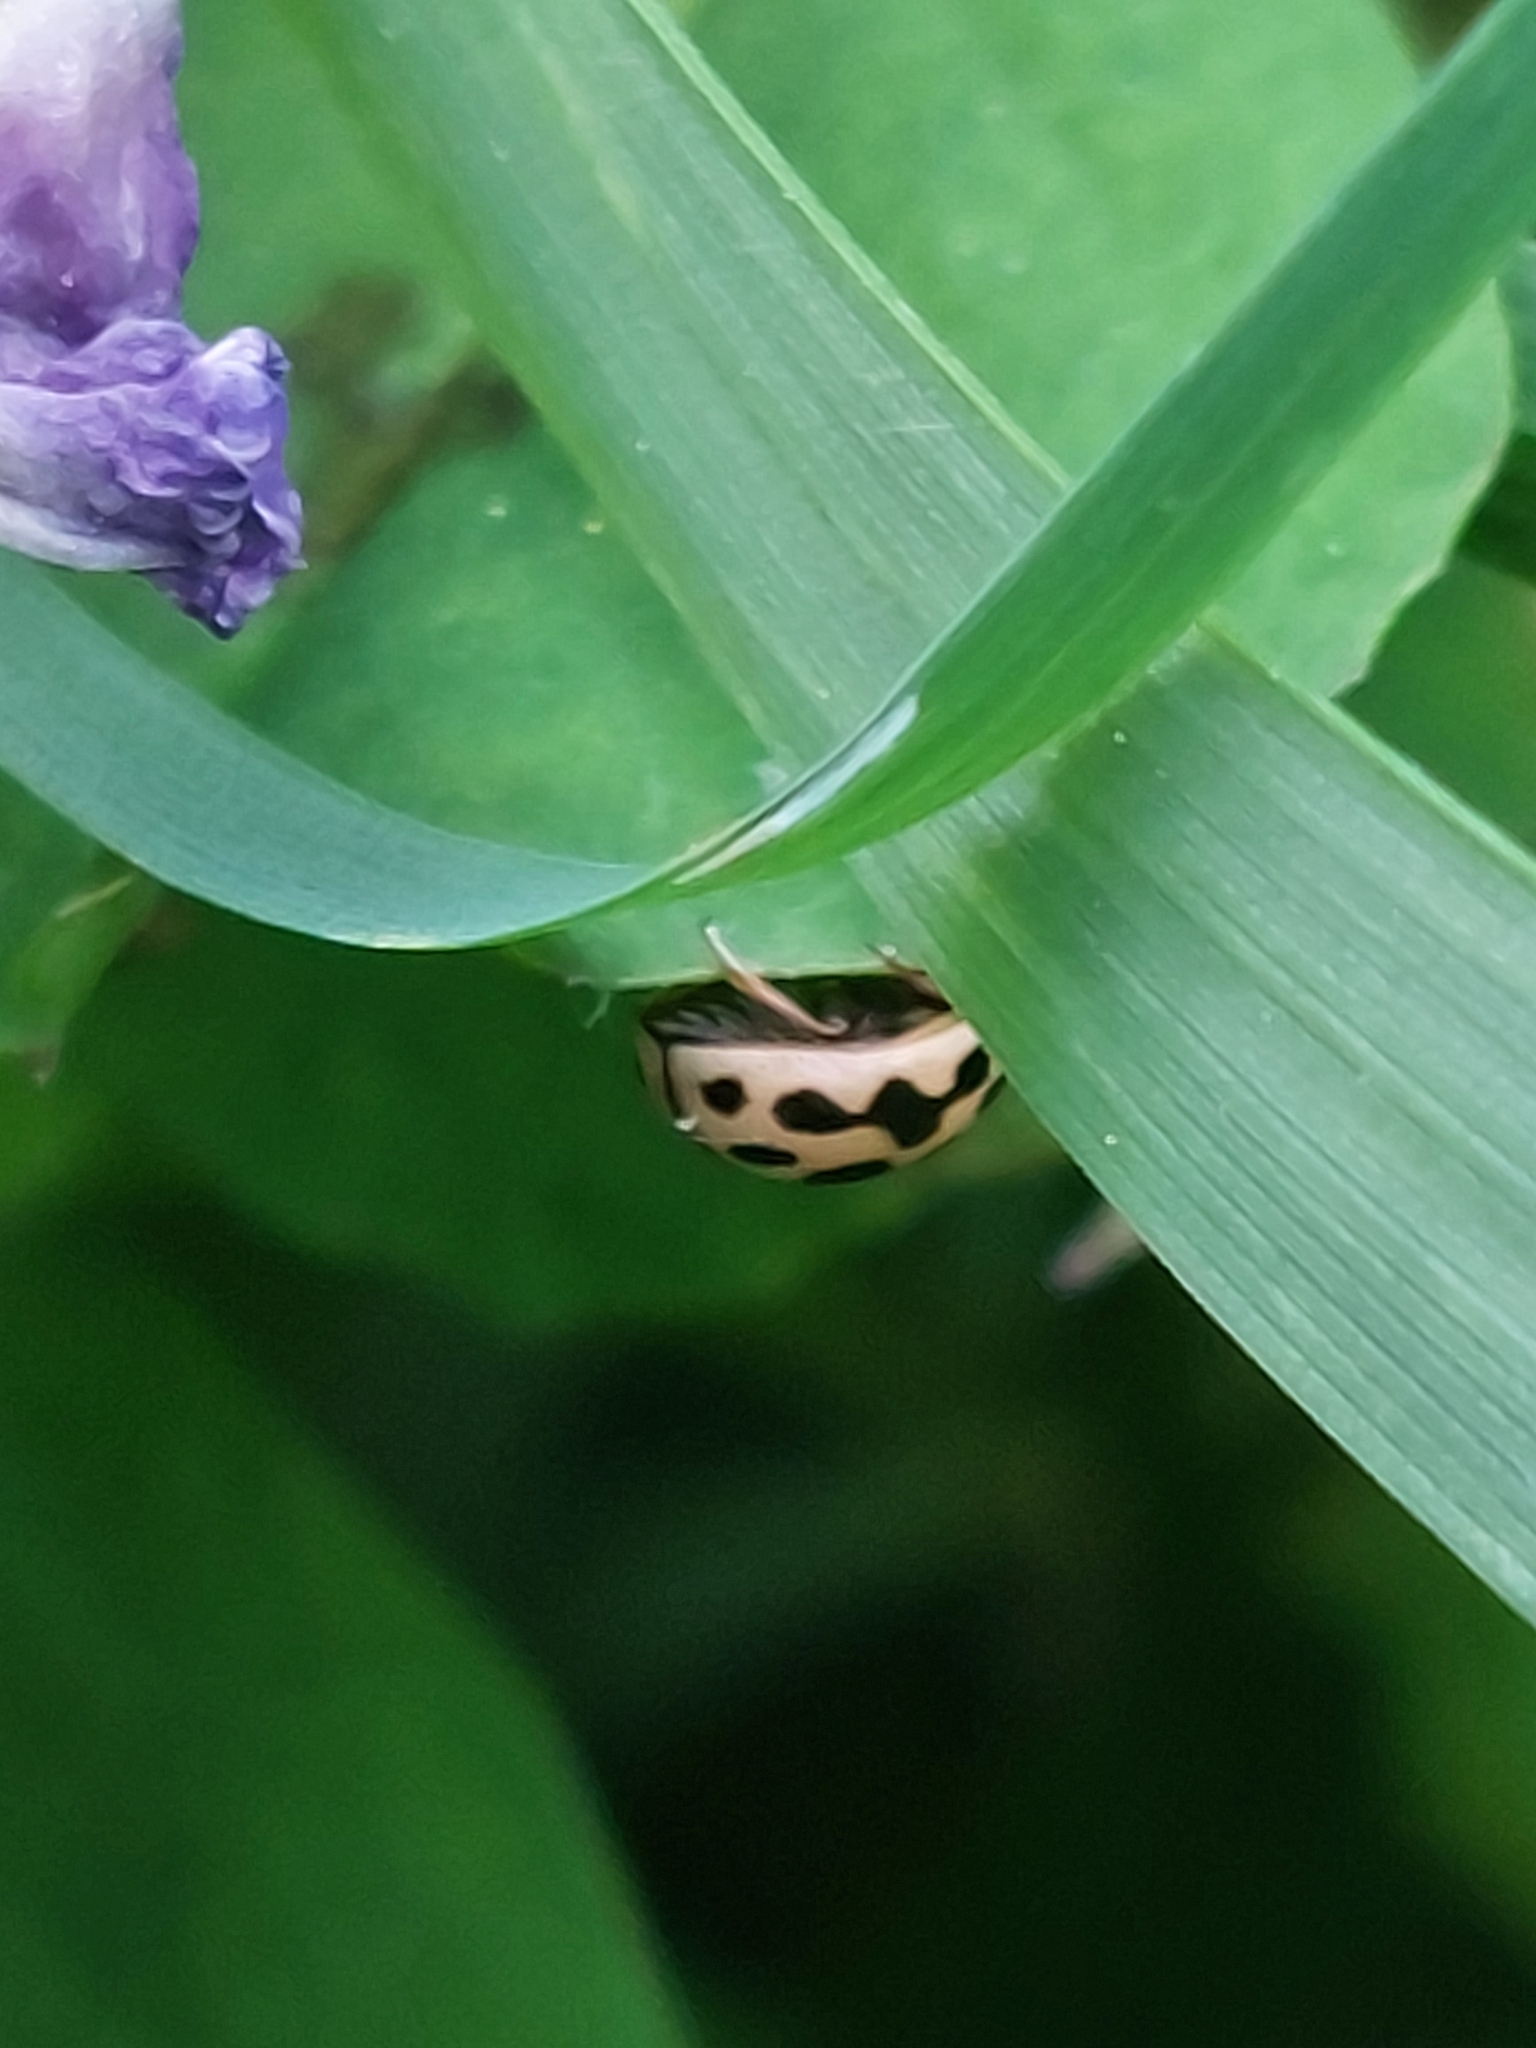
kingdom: Animalia
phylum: Arthropoda
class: Insecta
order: Coleoptera
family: Coccinellidae
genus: Tytthaspis
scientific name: Tytthaspis sedecimpunctata
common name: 16-spot ladybird
